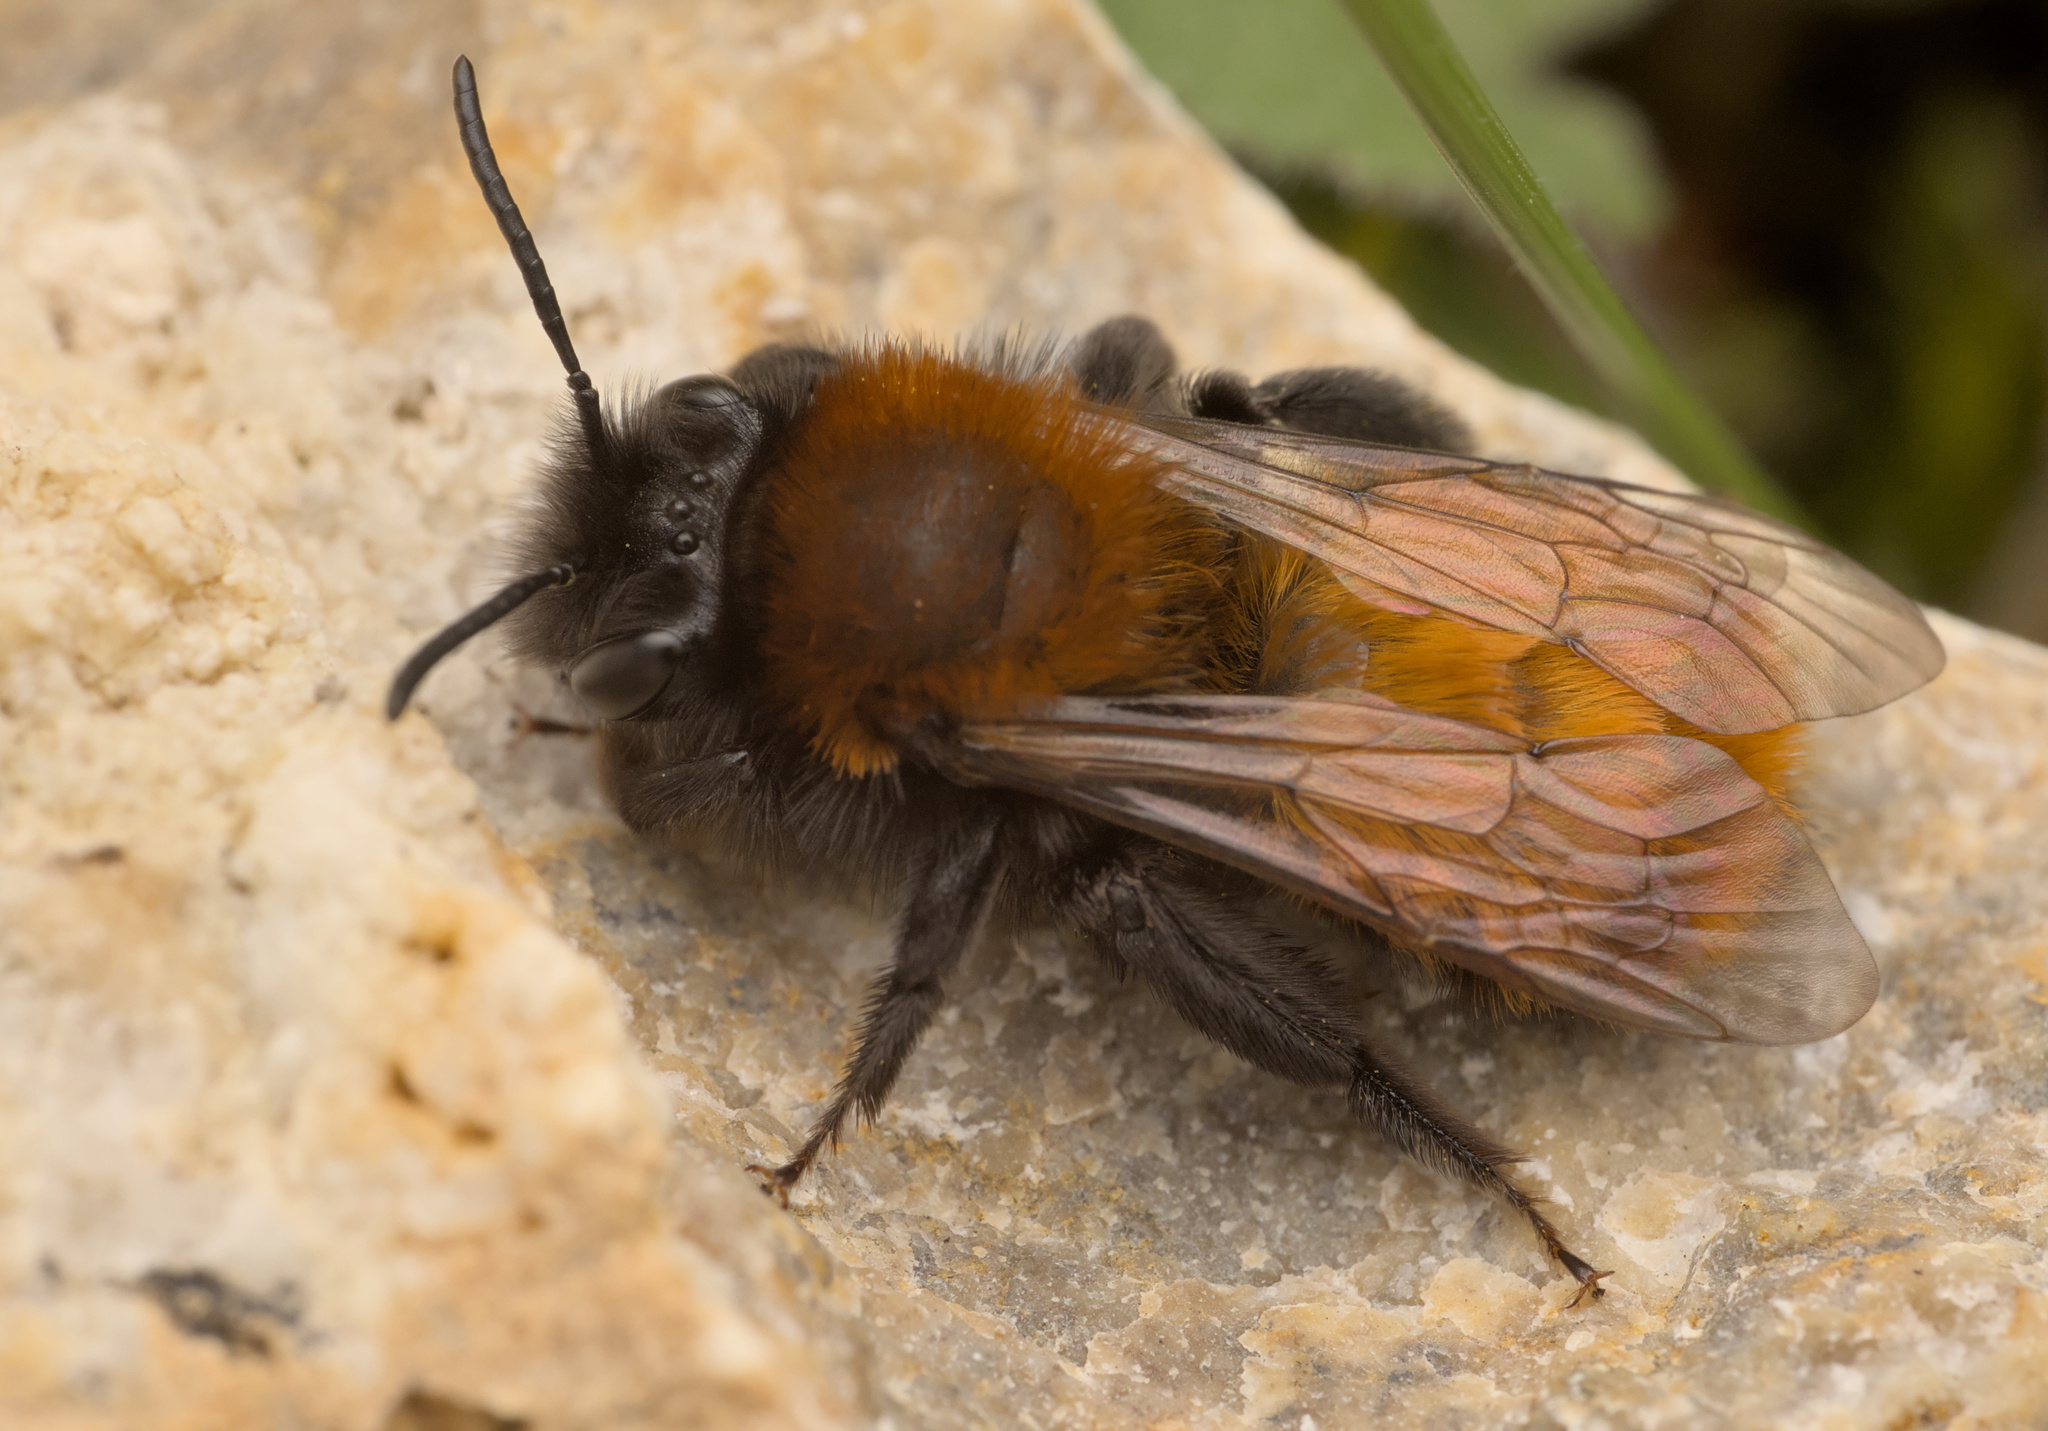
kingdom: Animalia
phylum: Arthropoda
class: Insecta
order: Hymenoptera
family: Andrenidae
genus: Andrena
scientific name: Andrena fulva
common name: Tawny mining bee
